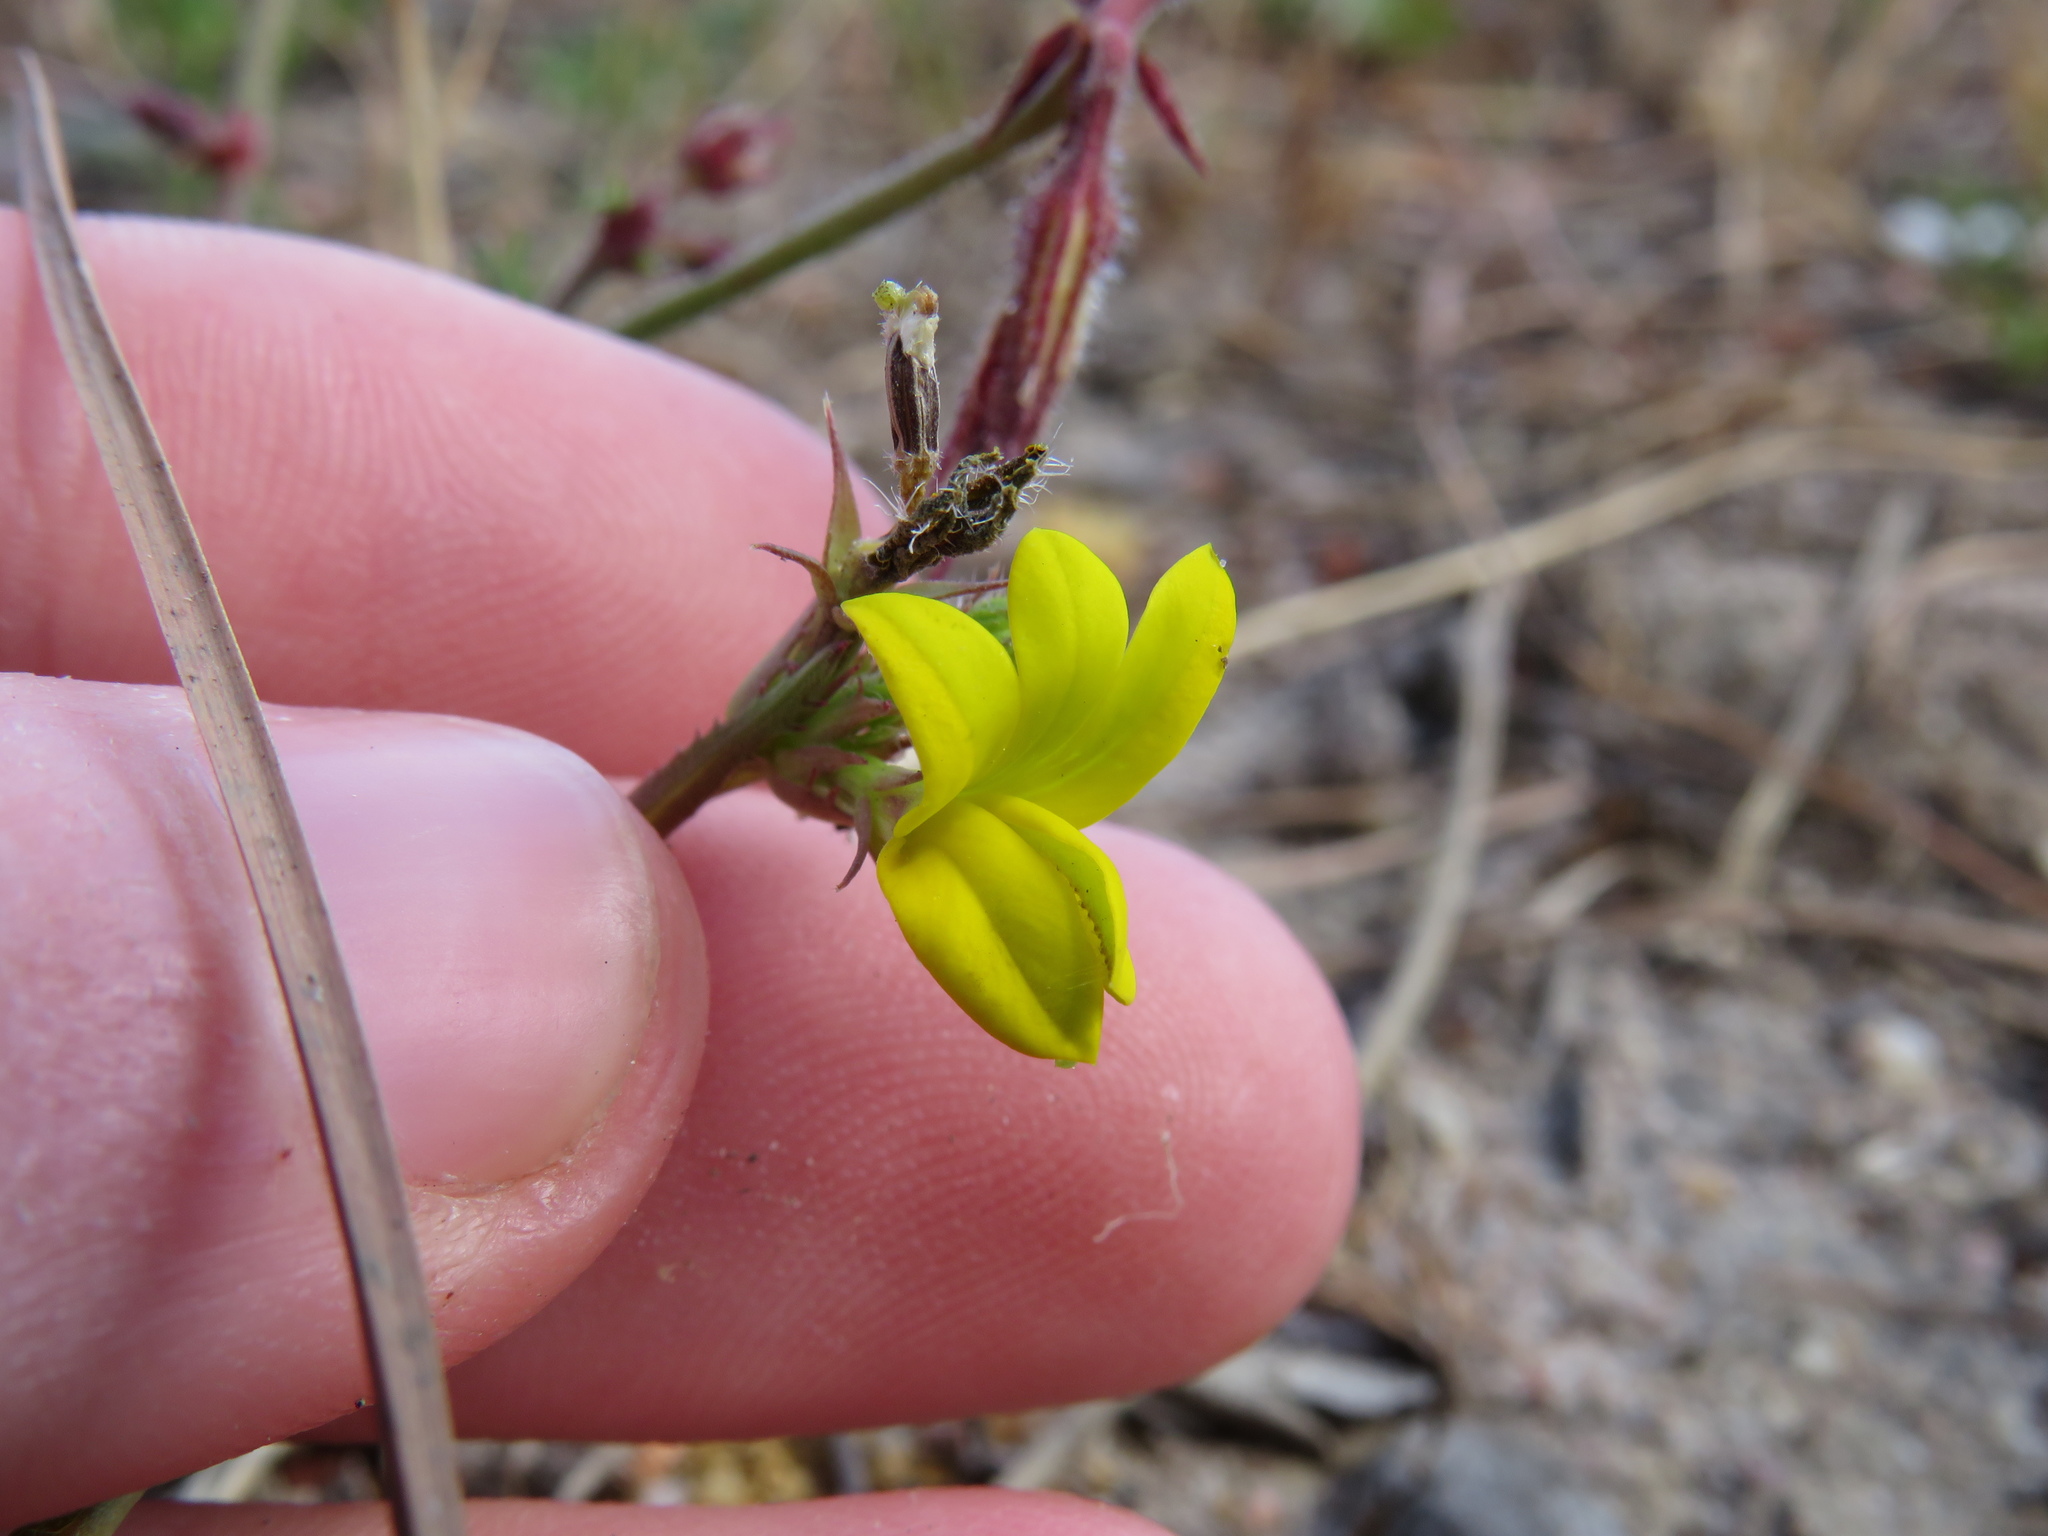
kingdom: Plantae
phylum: Tracheophyta
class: Magnoliopsida
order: Asterales
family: Campanulaceae
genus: Monopsis
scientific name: Monopsis lutea
